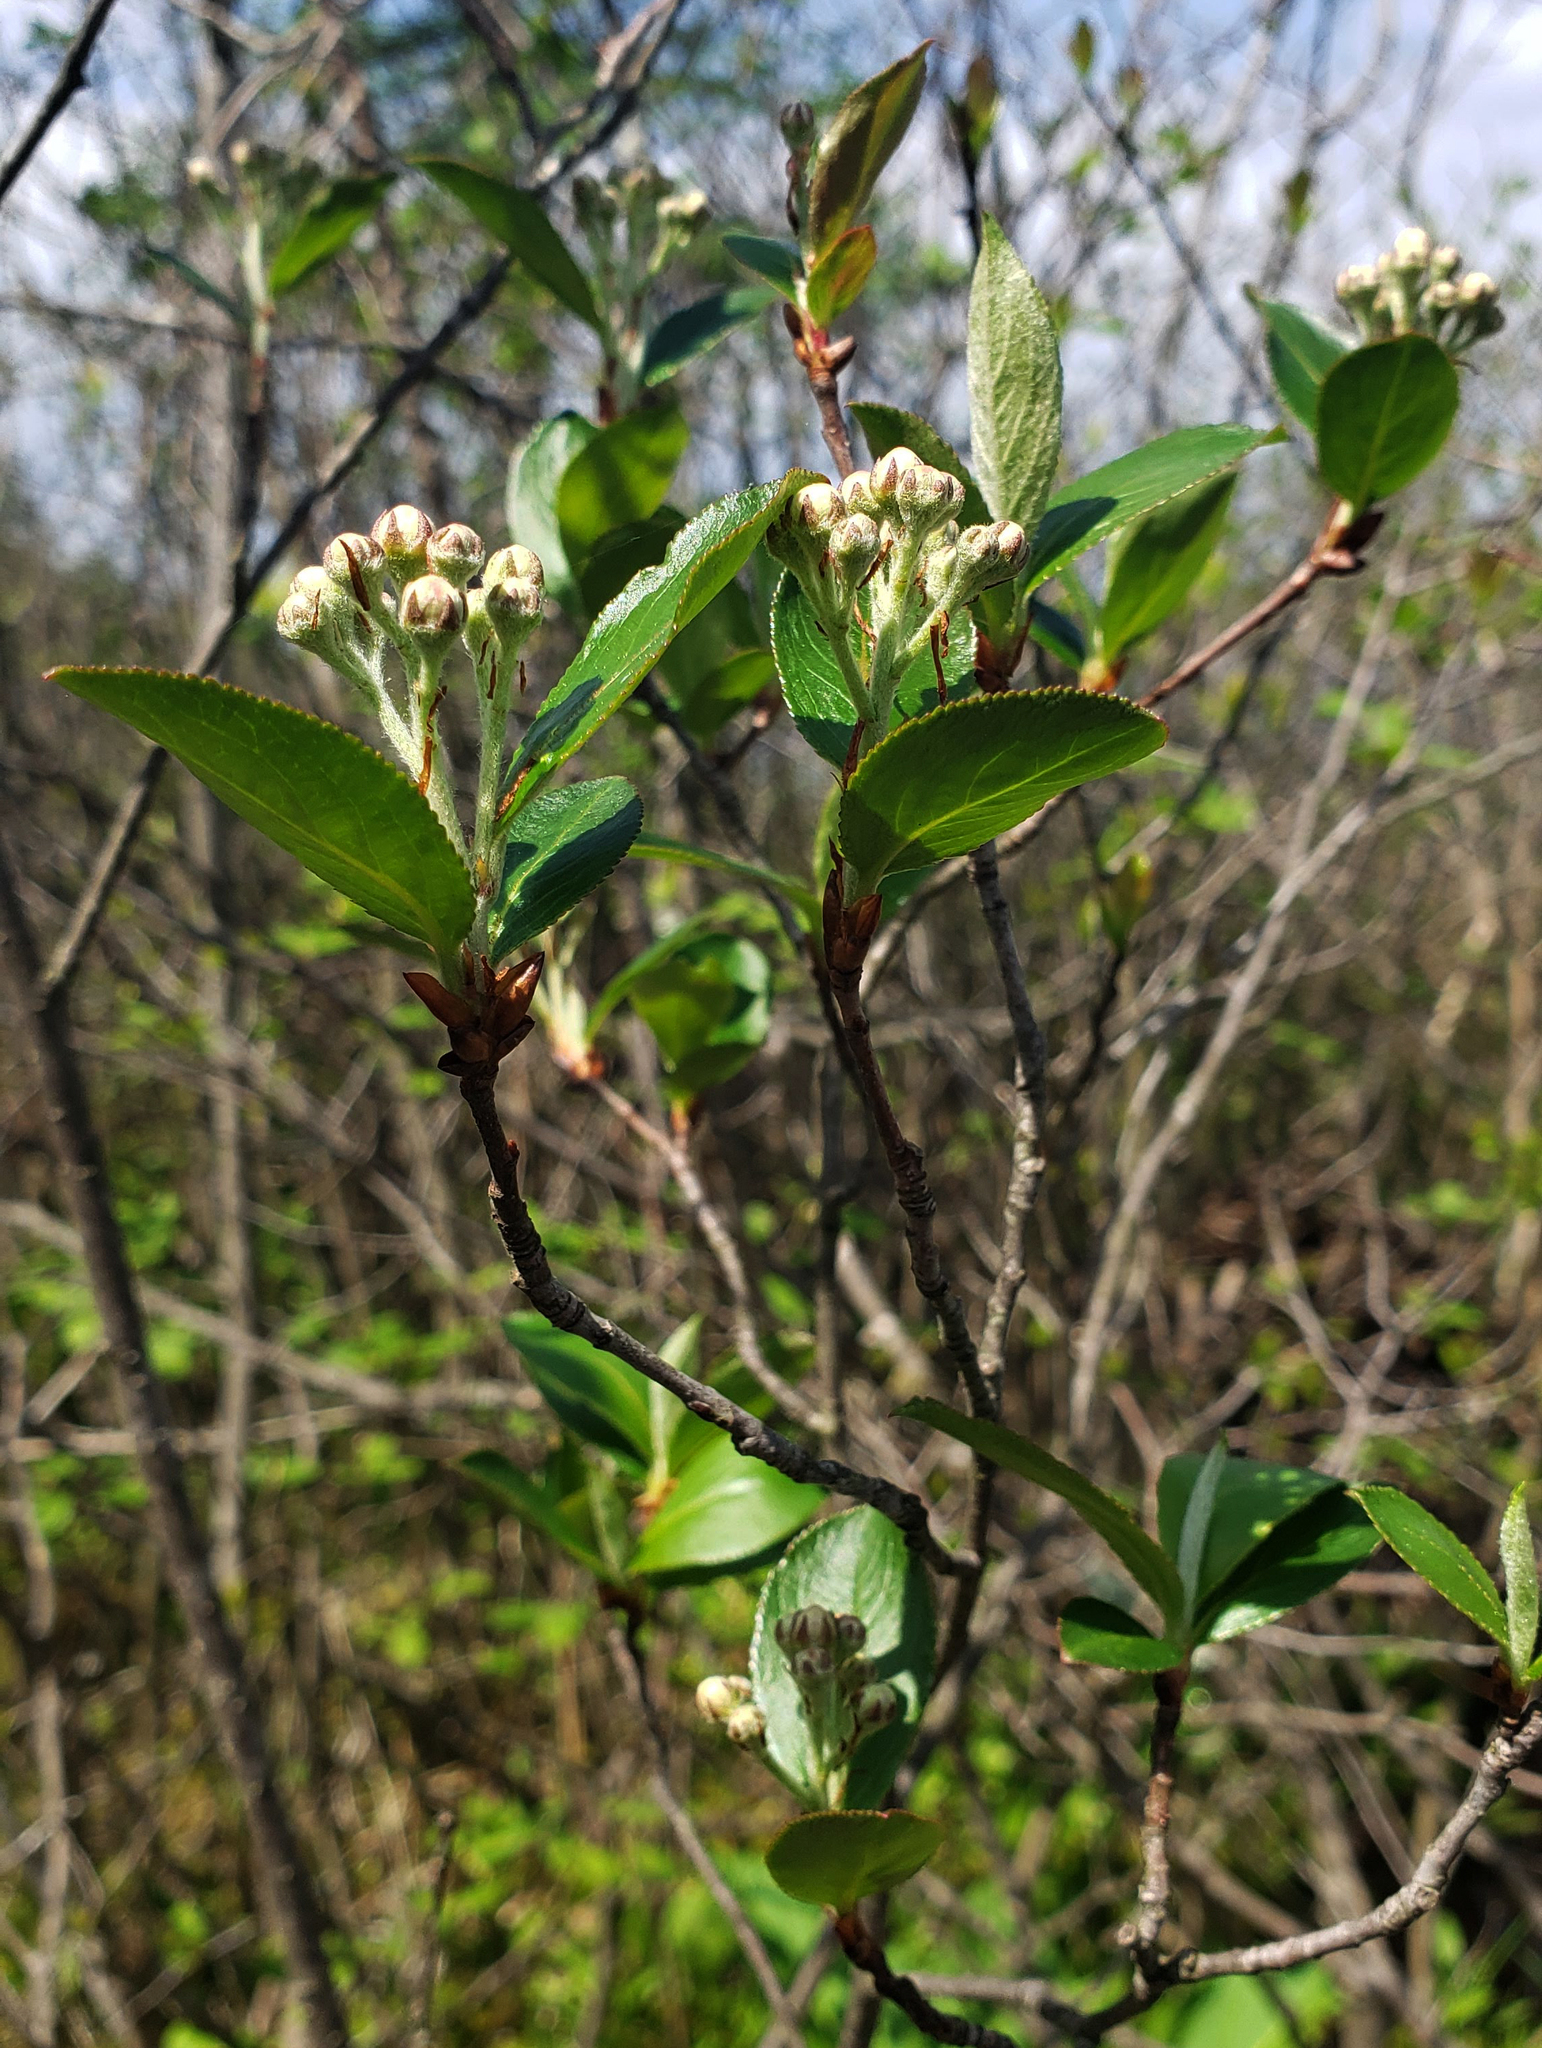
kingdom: Plantae
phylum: Tracheophyta
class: Magnoliopsida
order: Rosales
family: Rosaceae
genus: Aronia
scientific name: Aronia melanocarpa
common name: Black chokeberry
